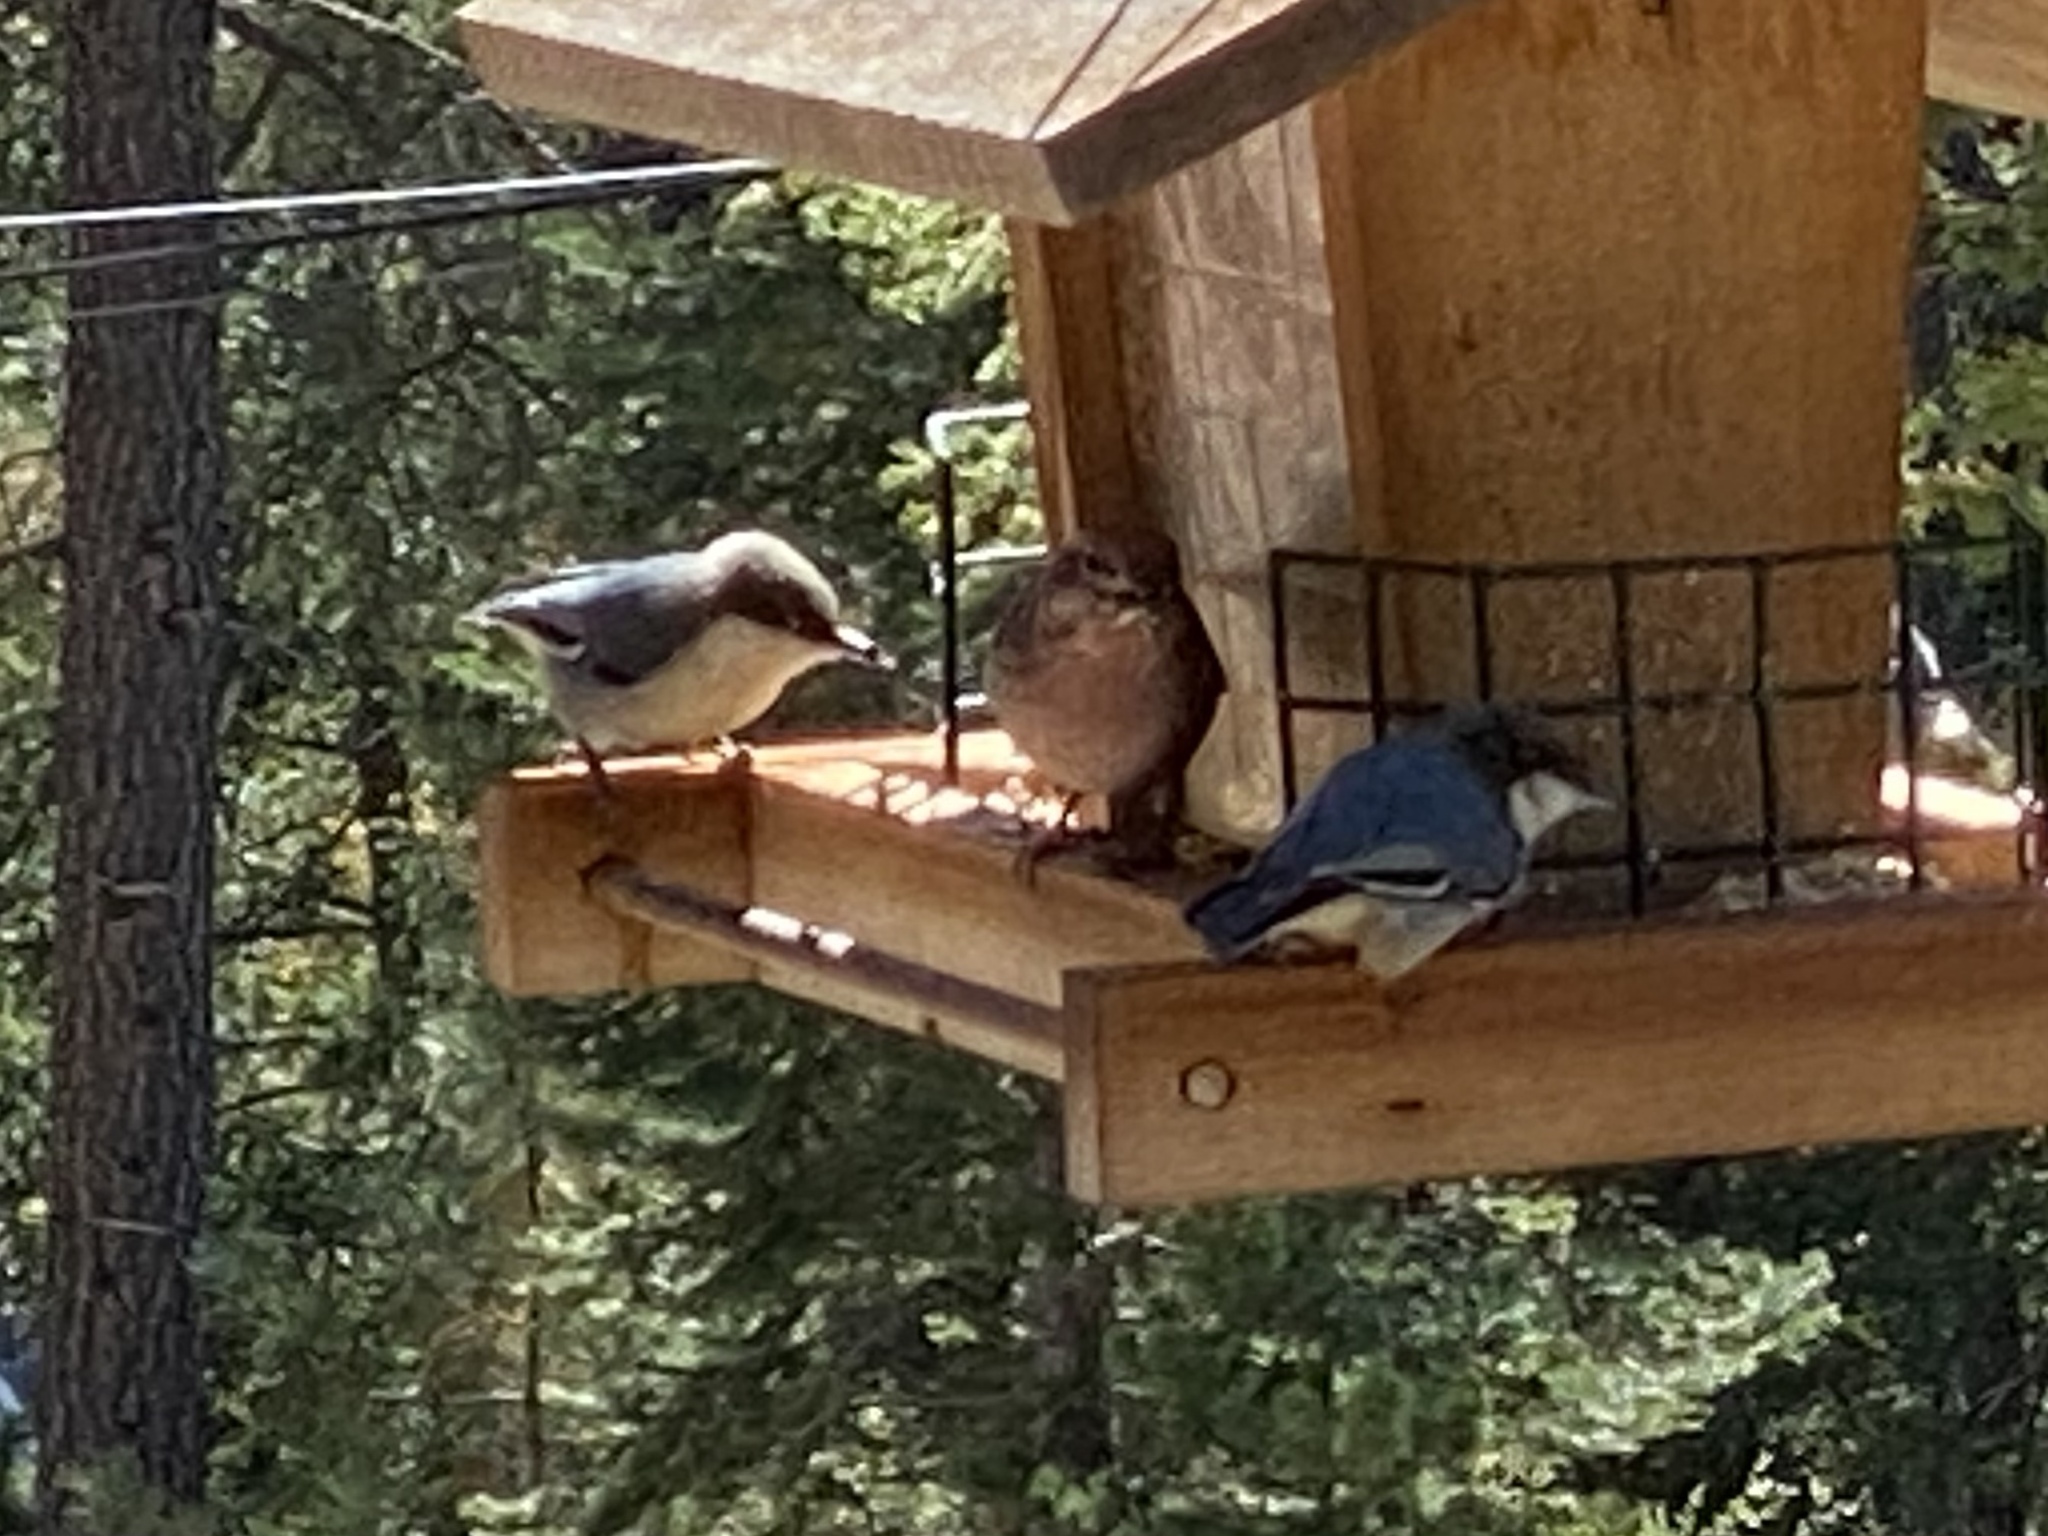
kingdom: Animalia
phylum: Chordata
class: Aves
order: Passeriformes
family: Sittidae
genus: Sitta
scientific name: Sitta pygmaea
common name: Pygmy nuthatch
